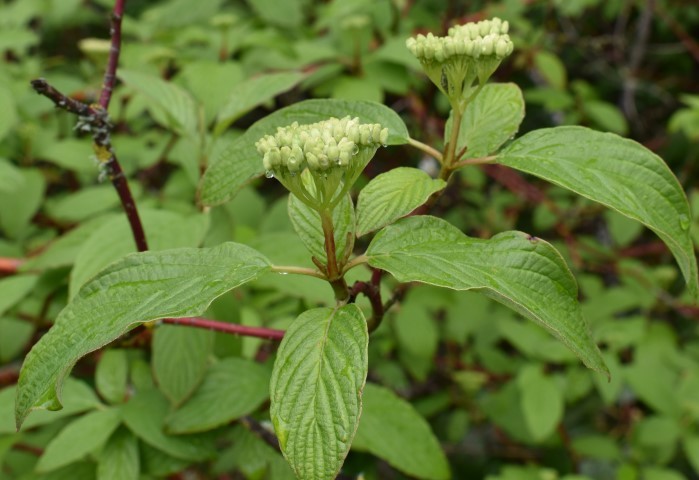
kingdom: Plantae
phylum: Tracheophyta
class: Magnoliopsida
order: Cornales
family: Cornaceae
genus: Cornus
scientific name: Cornus sericea
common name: Red-osier dogwood
